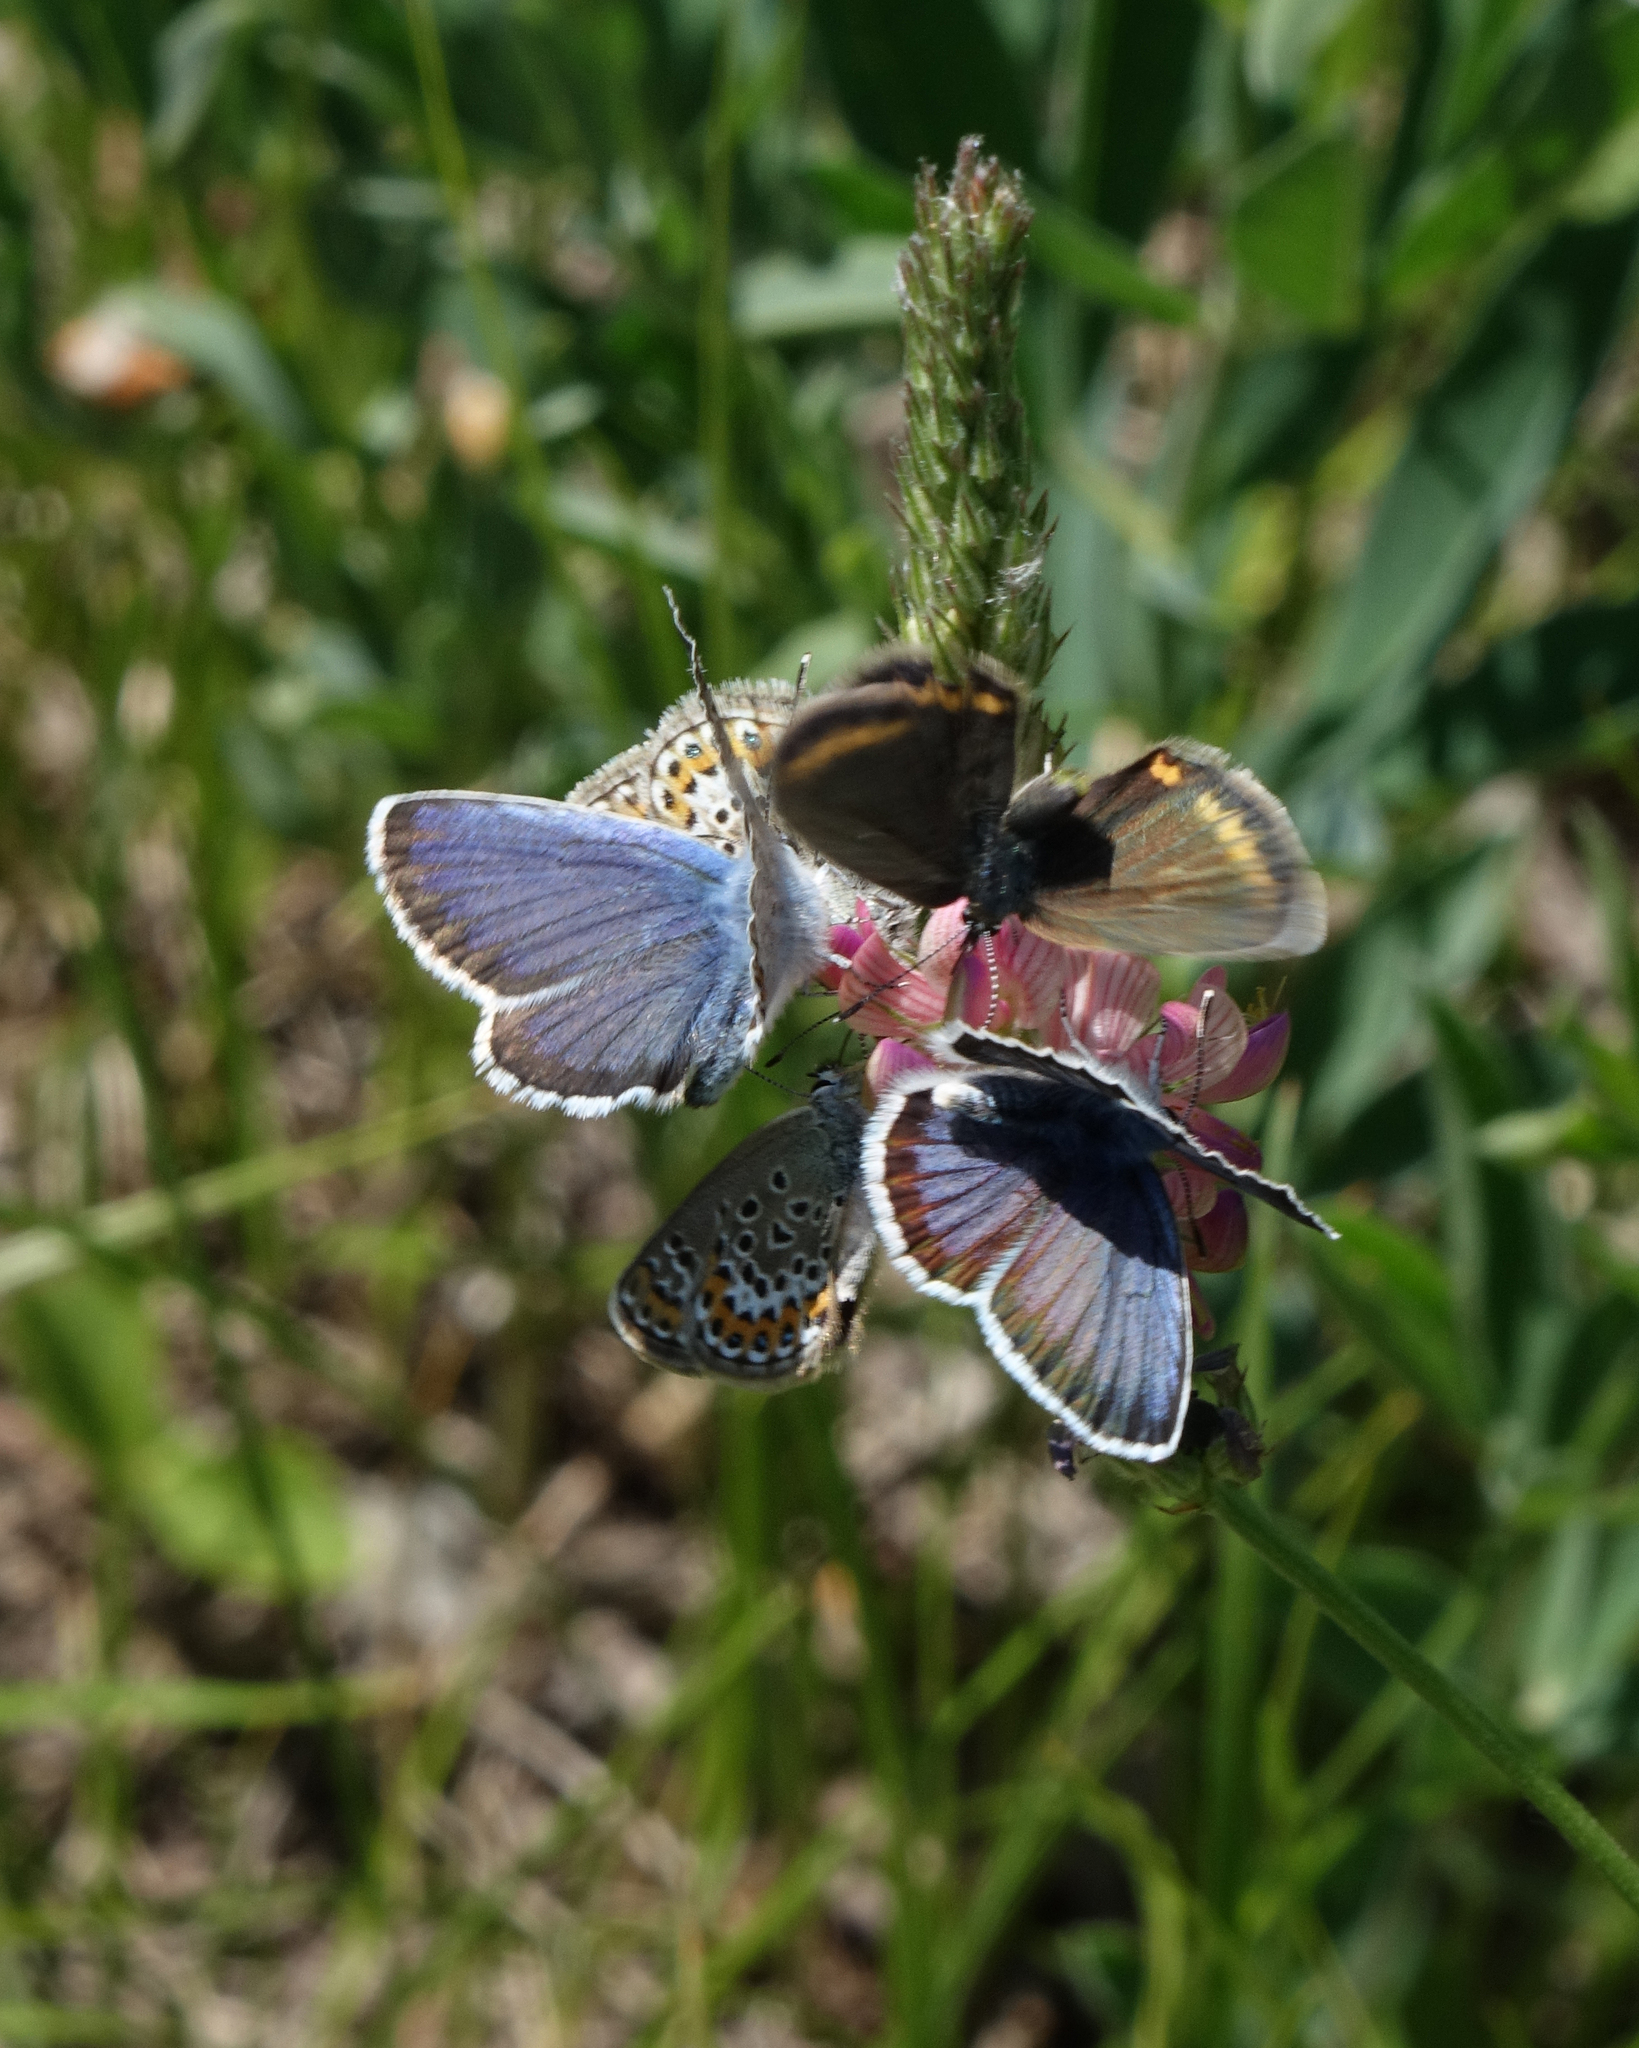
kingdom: Plantae
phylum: Tracheophyta
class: Magnoliopsida
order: Fabales
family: Fabaceae
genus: Onobrychis
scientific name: Onobrychis arenaria
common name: Sand esparcet
